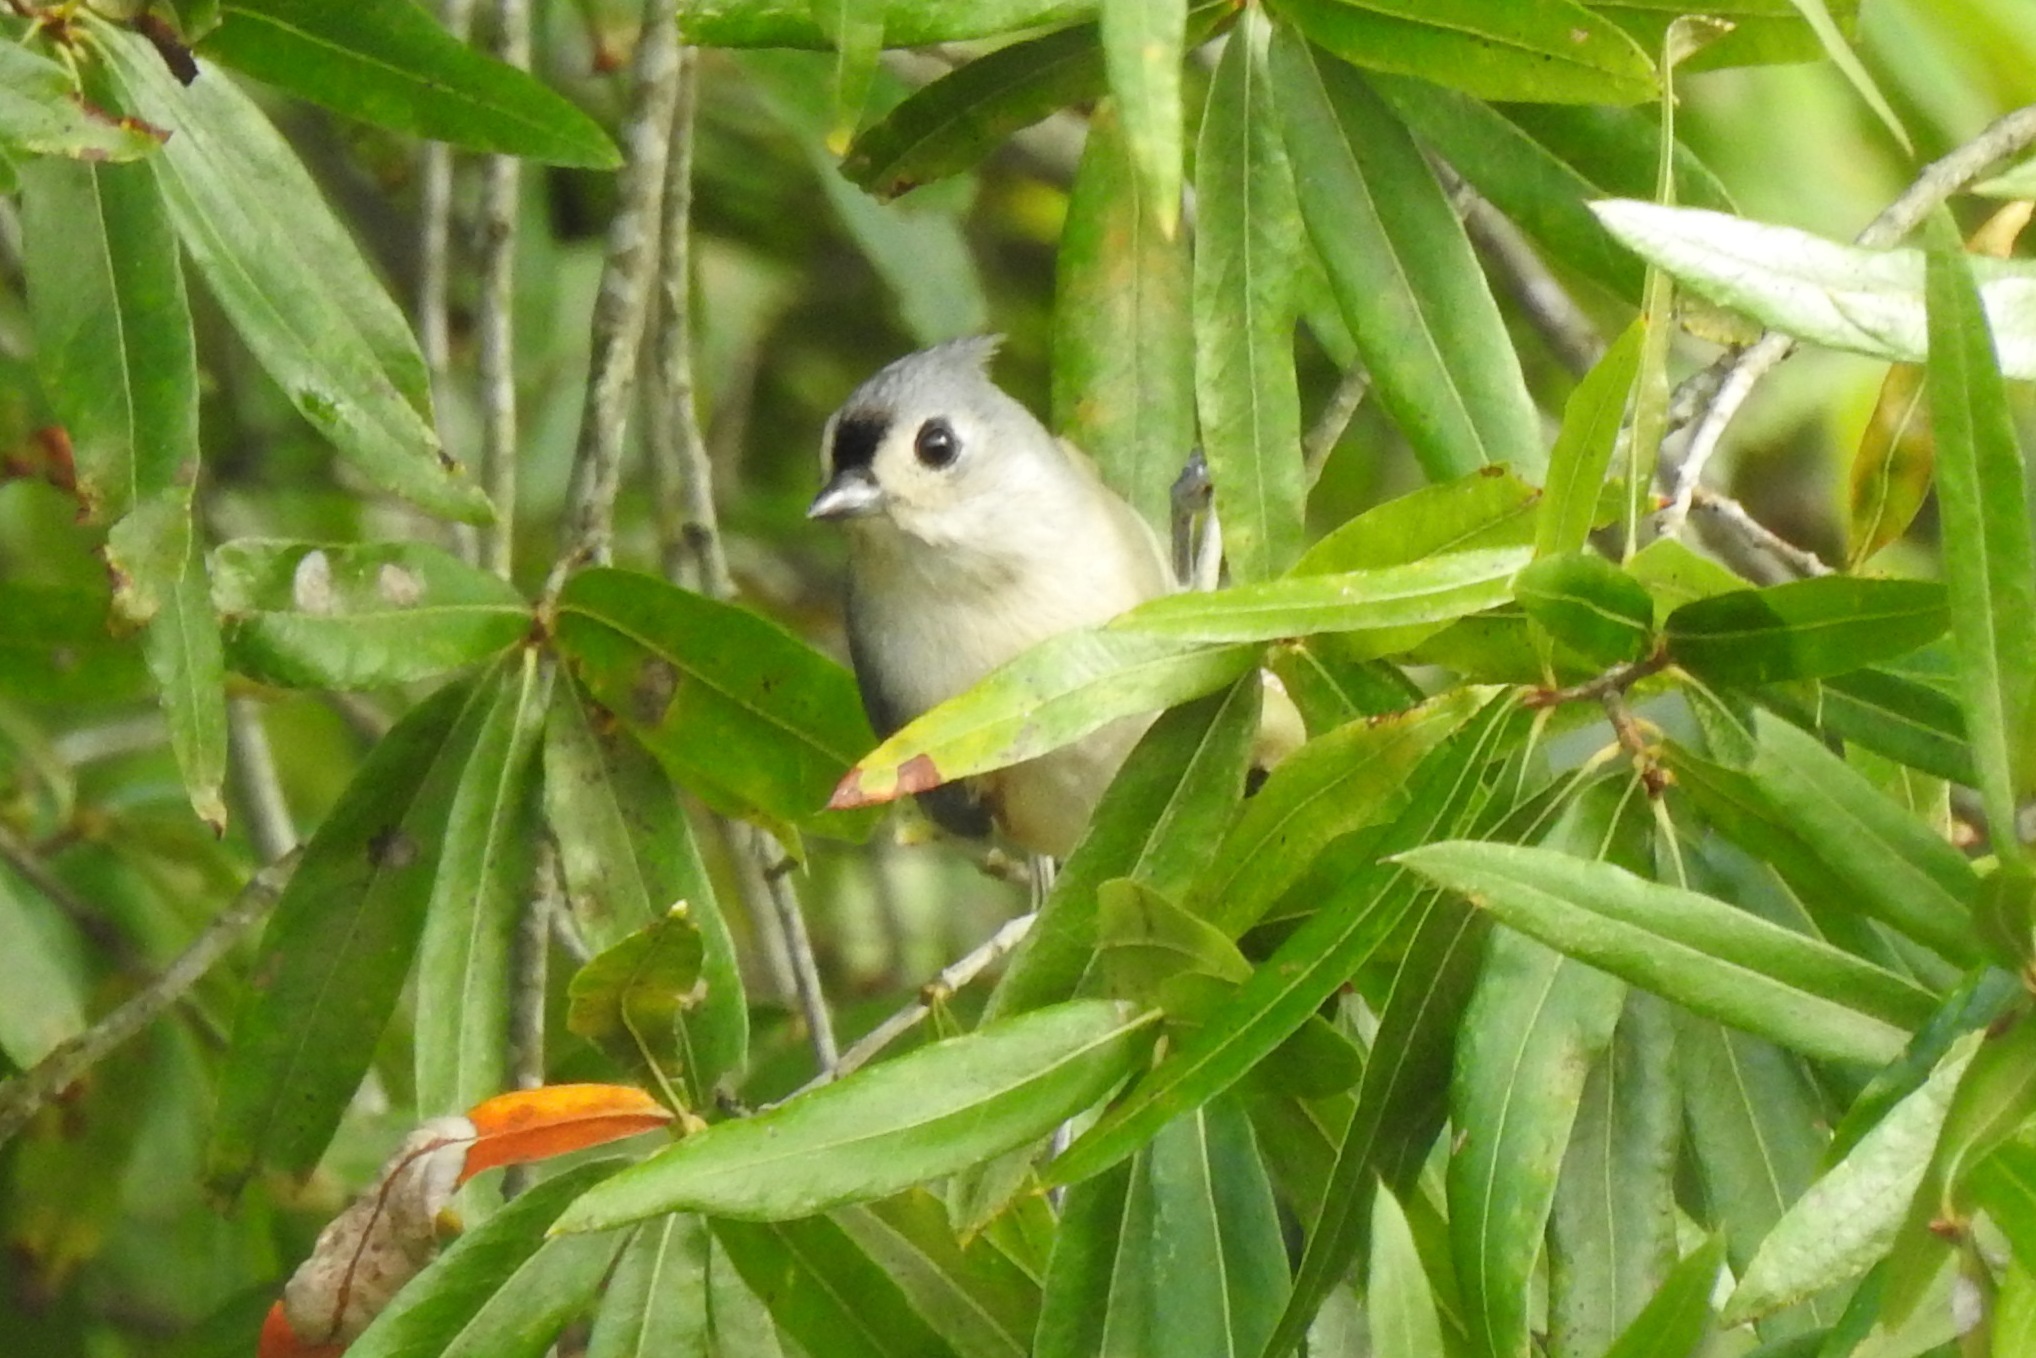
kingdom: Animalia
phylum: Chordata
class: Aves
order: Passeriformes
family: Paridae
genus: Baeolophus
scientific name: Baeolophus bicolor
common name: Tufted titmouse
